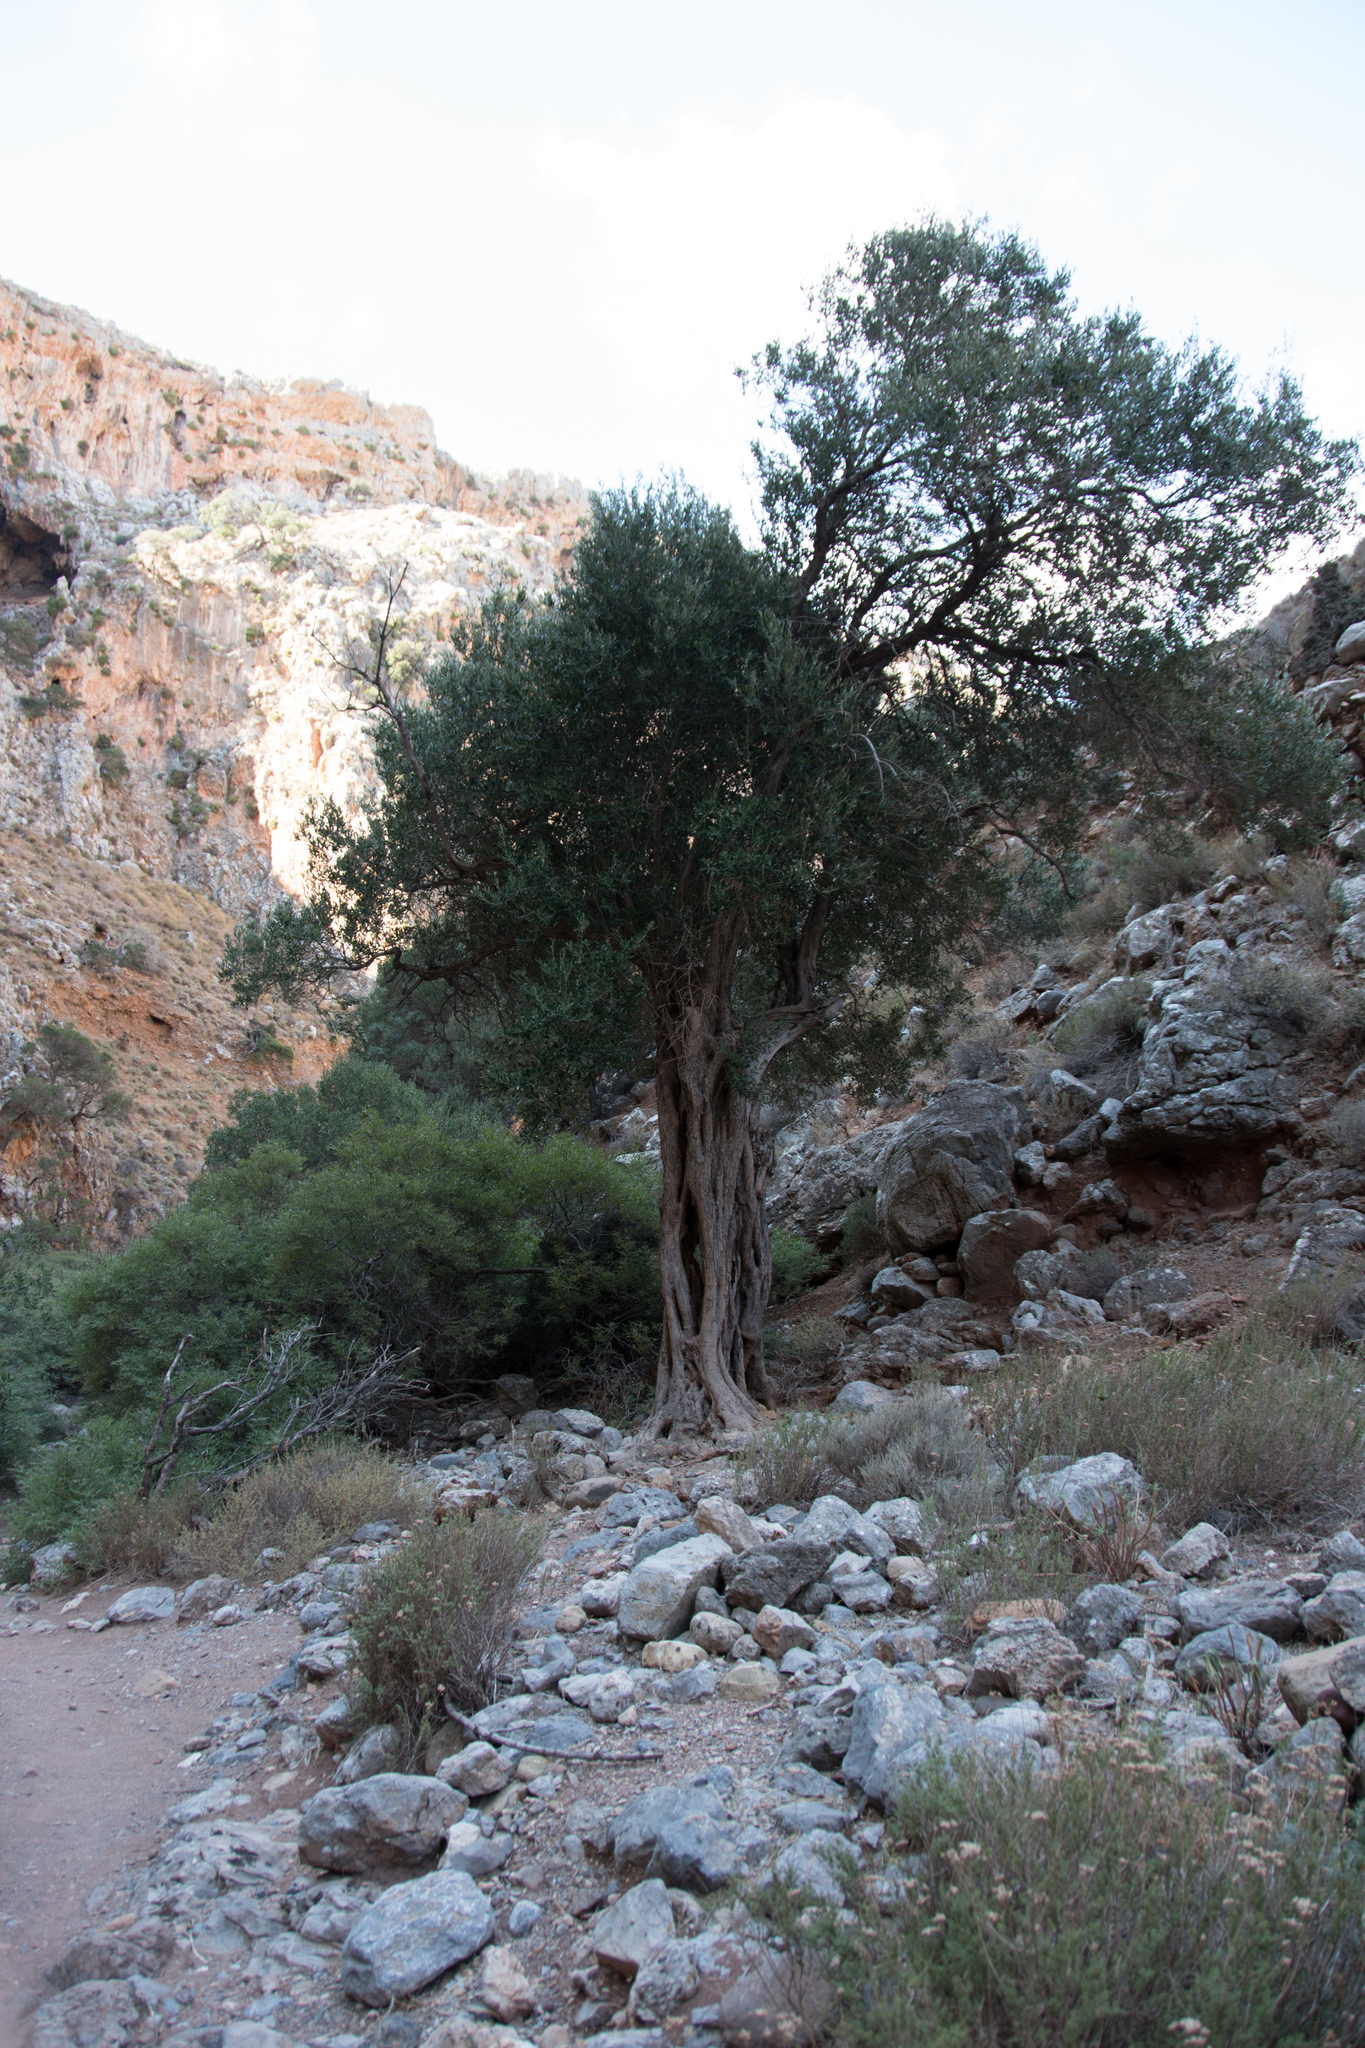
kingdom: Plantae
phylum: Tracheophyta
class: Magnoliopsida
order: Lamiales
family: Oleaceae
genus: Olea
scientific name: Olea europaea
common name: Olive
